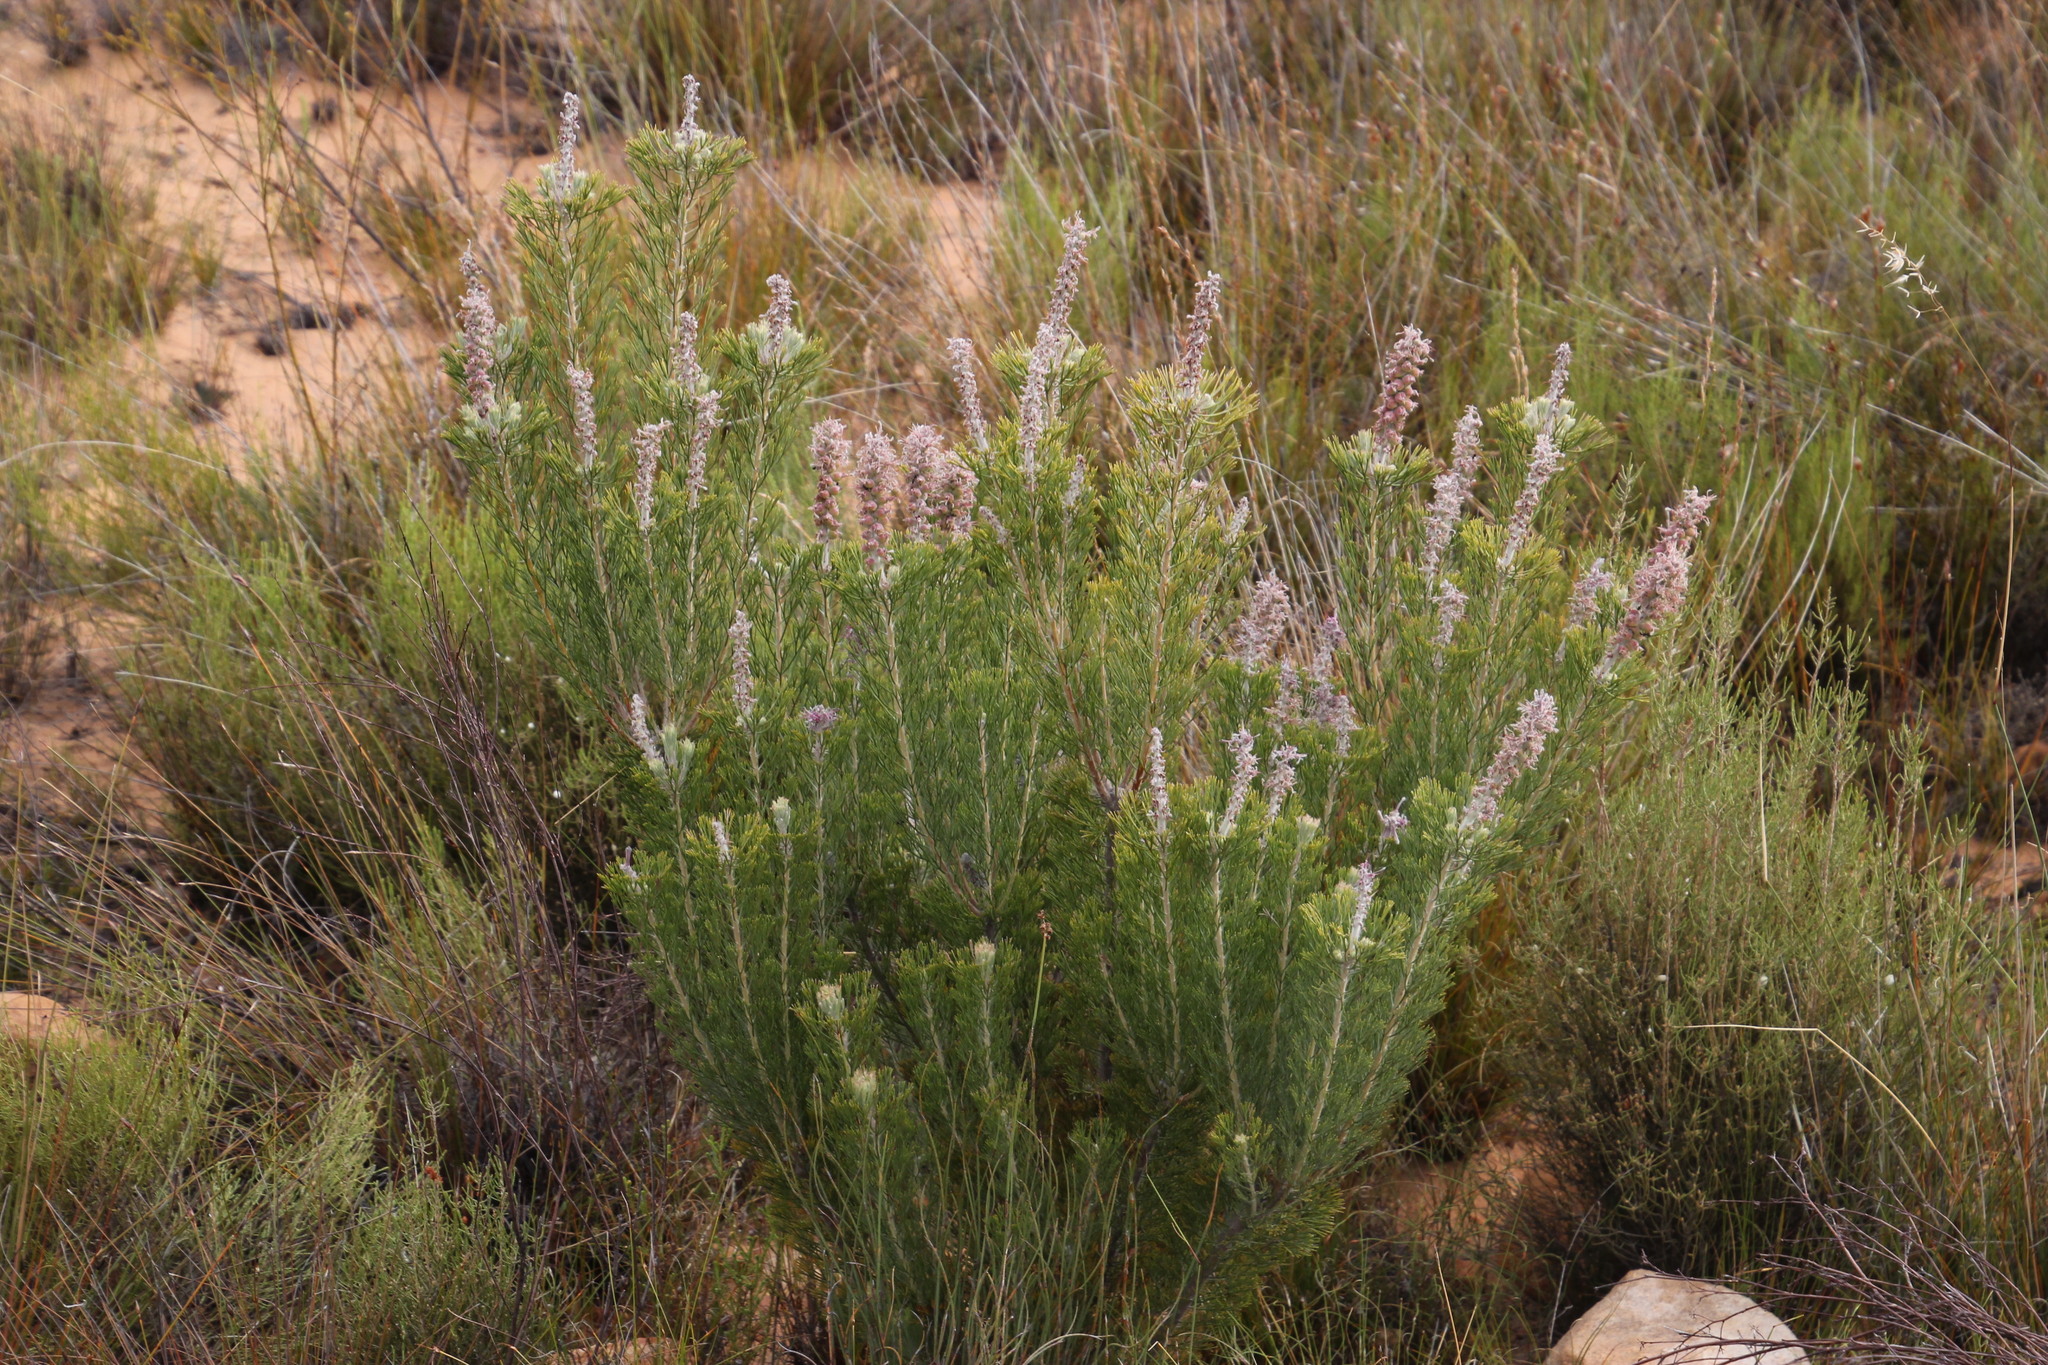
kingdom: Plantae
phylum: Tracheophyta
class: Magnoliopsida
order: Proteales
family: Proteaceae
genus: Paranomus
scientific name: Paranomus bracteolaris
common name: Bokkeveld tree sceptre
